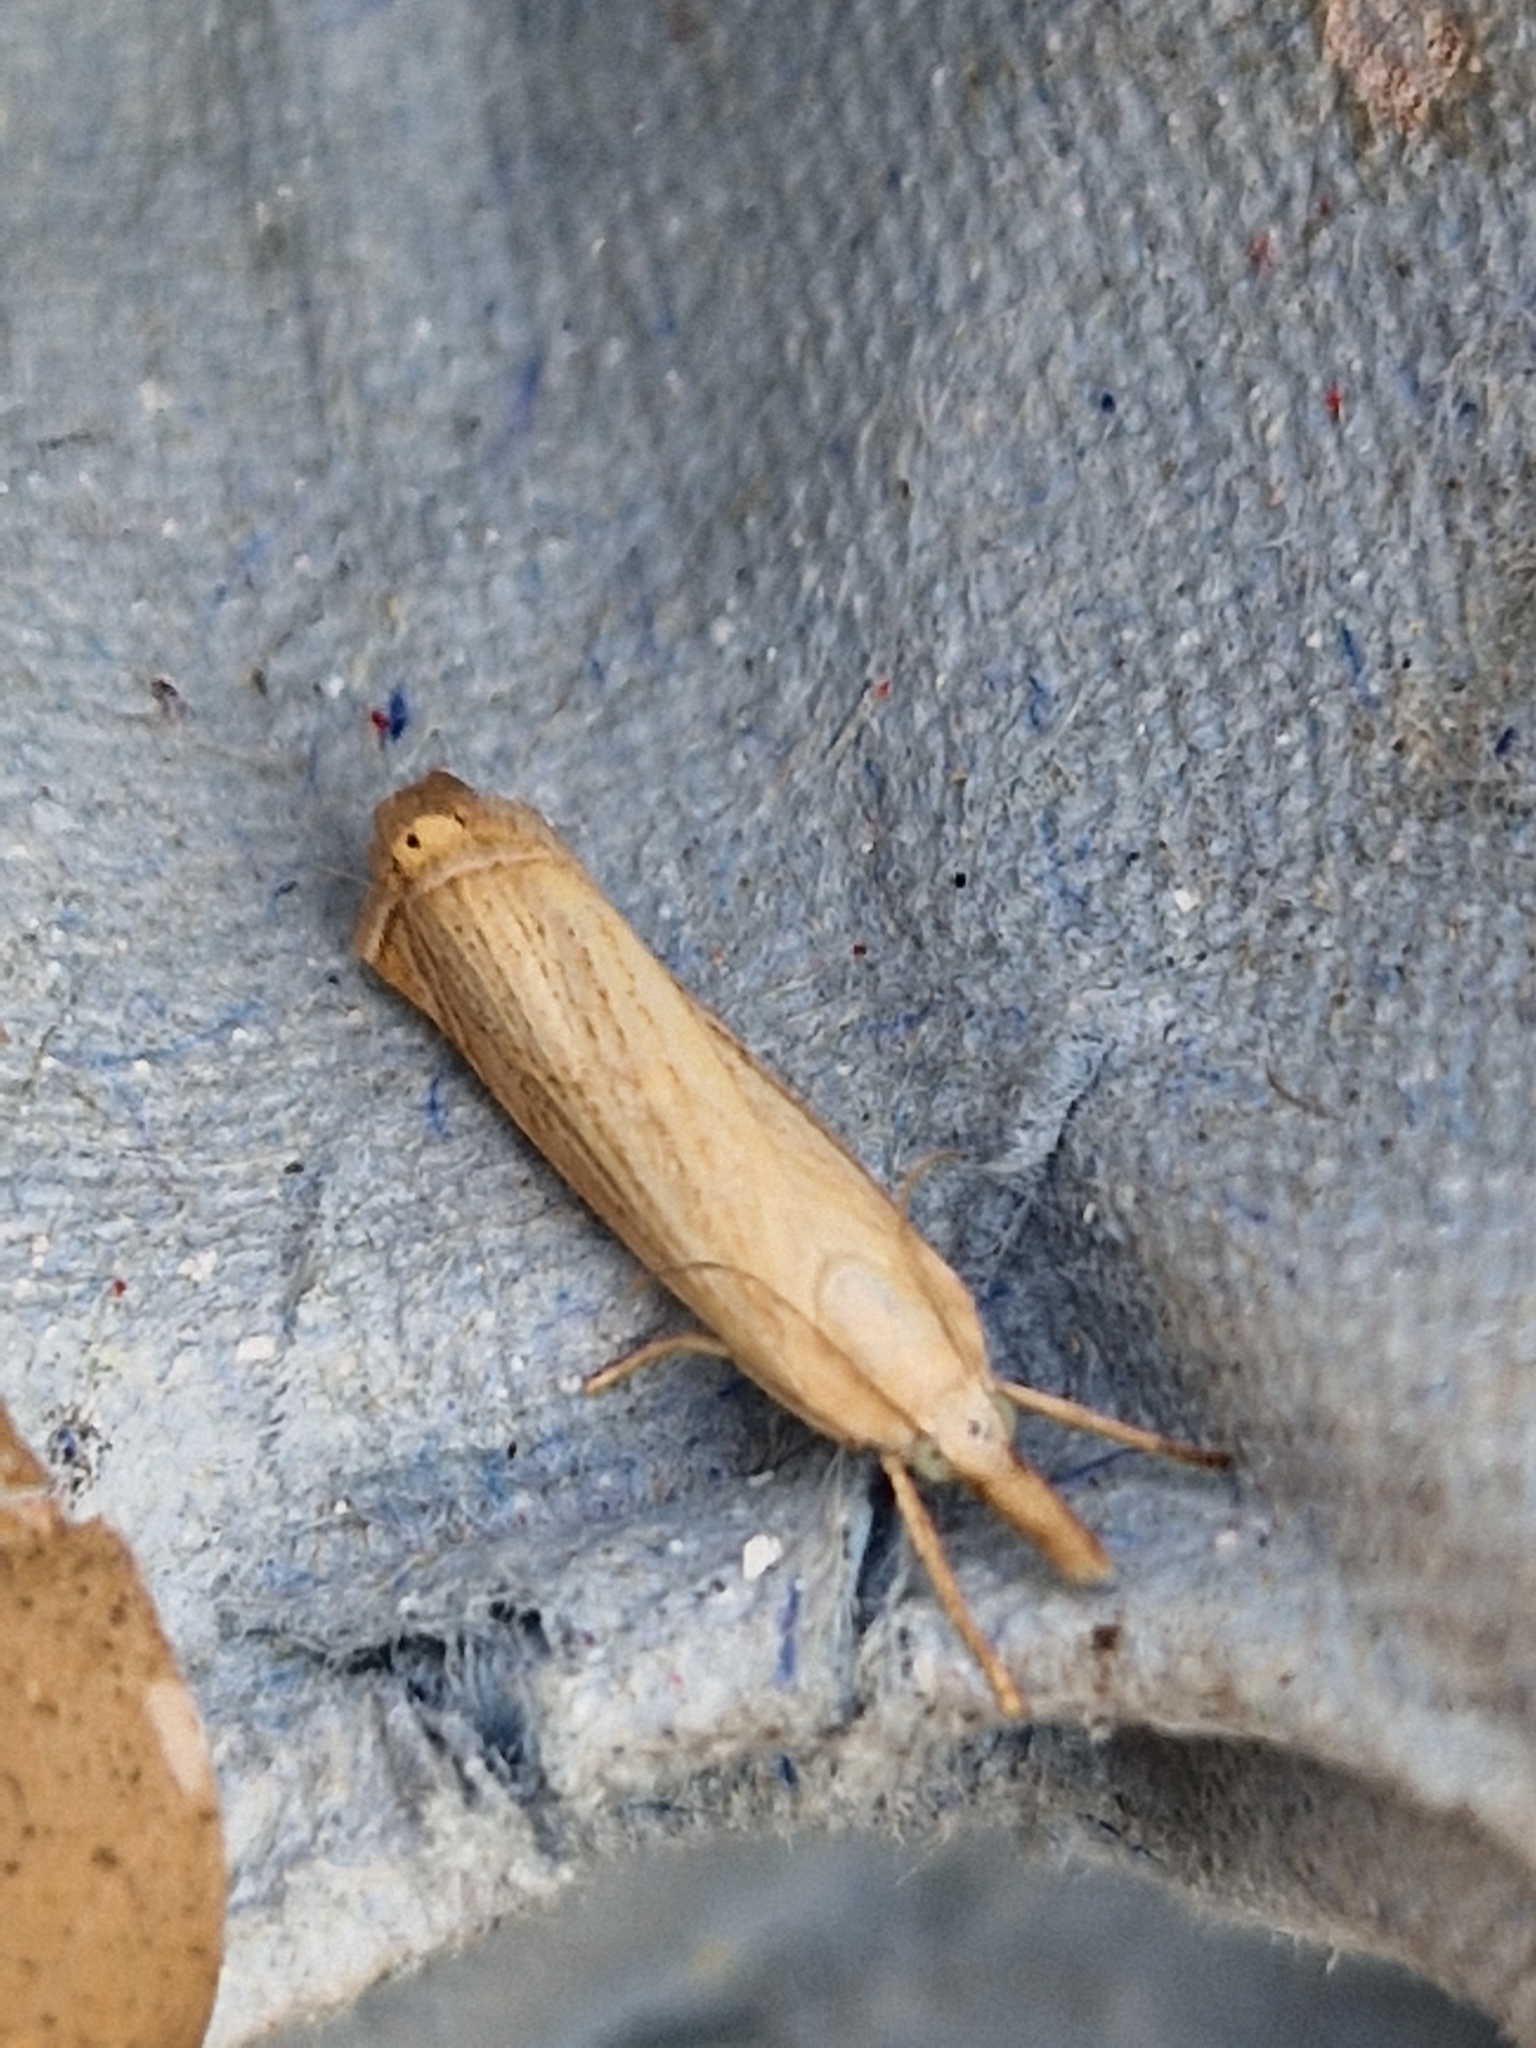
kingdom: Animalia
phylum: Arthropoda
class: Insecta
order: Lepidoptera
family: Crambidae
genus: Chrysoteuchia
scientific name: Chrysoteuchia culmella
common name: Garden grass-veneer
